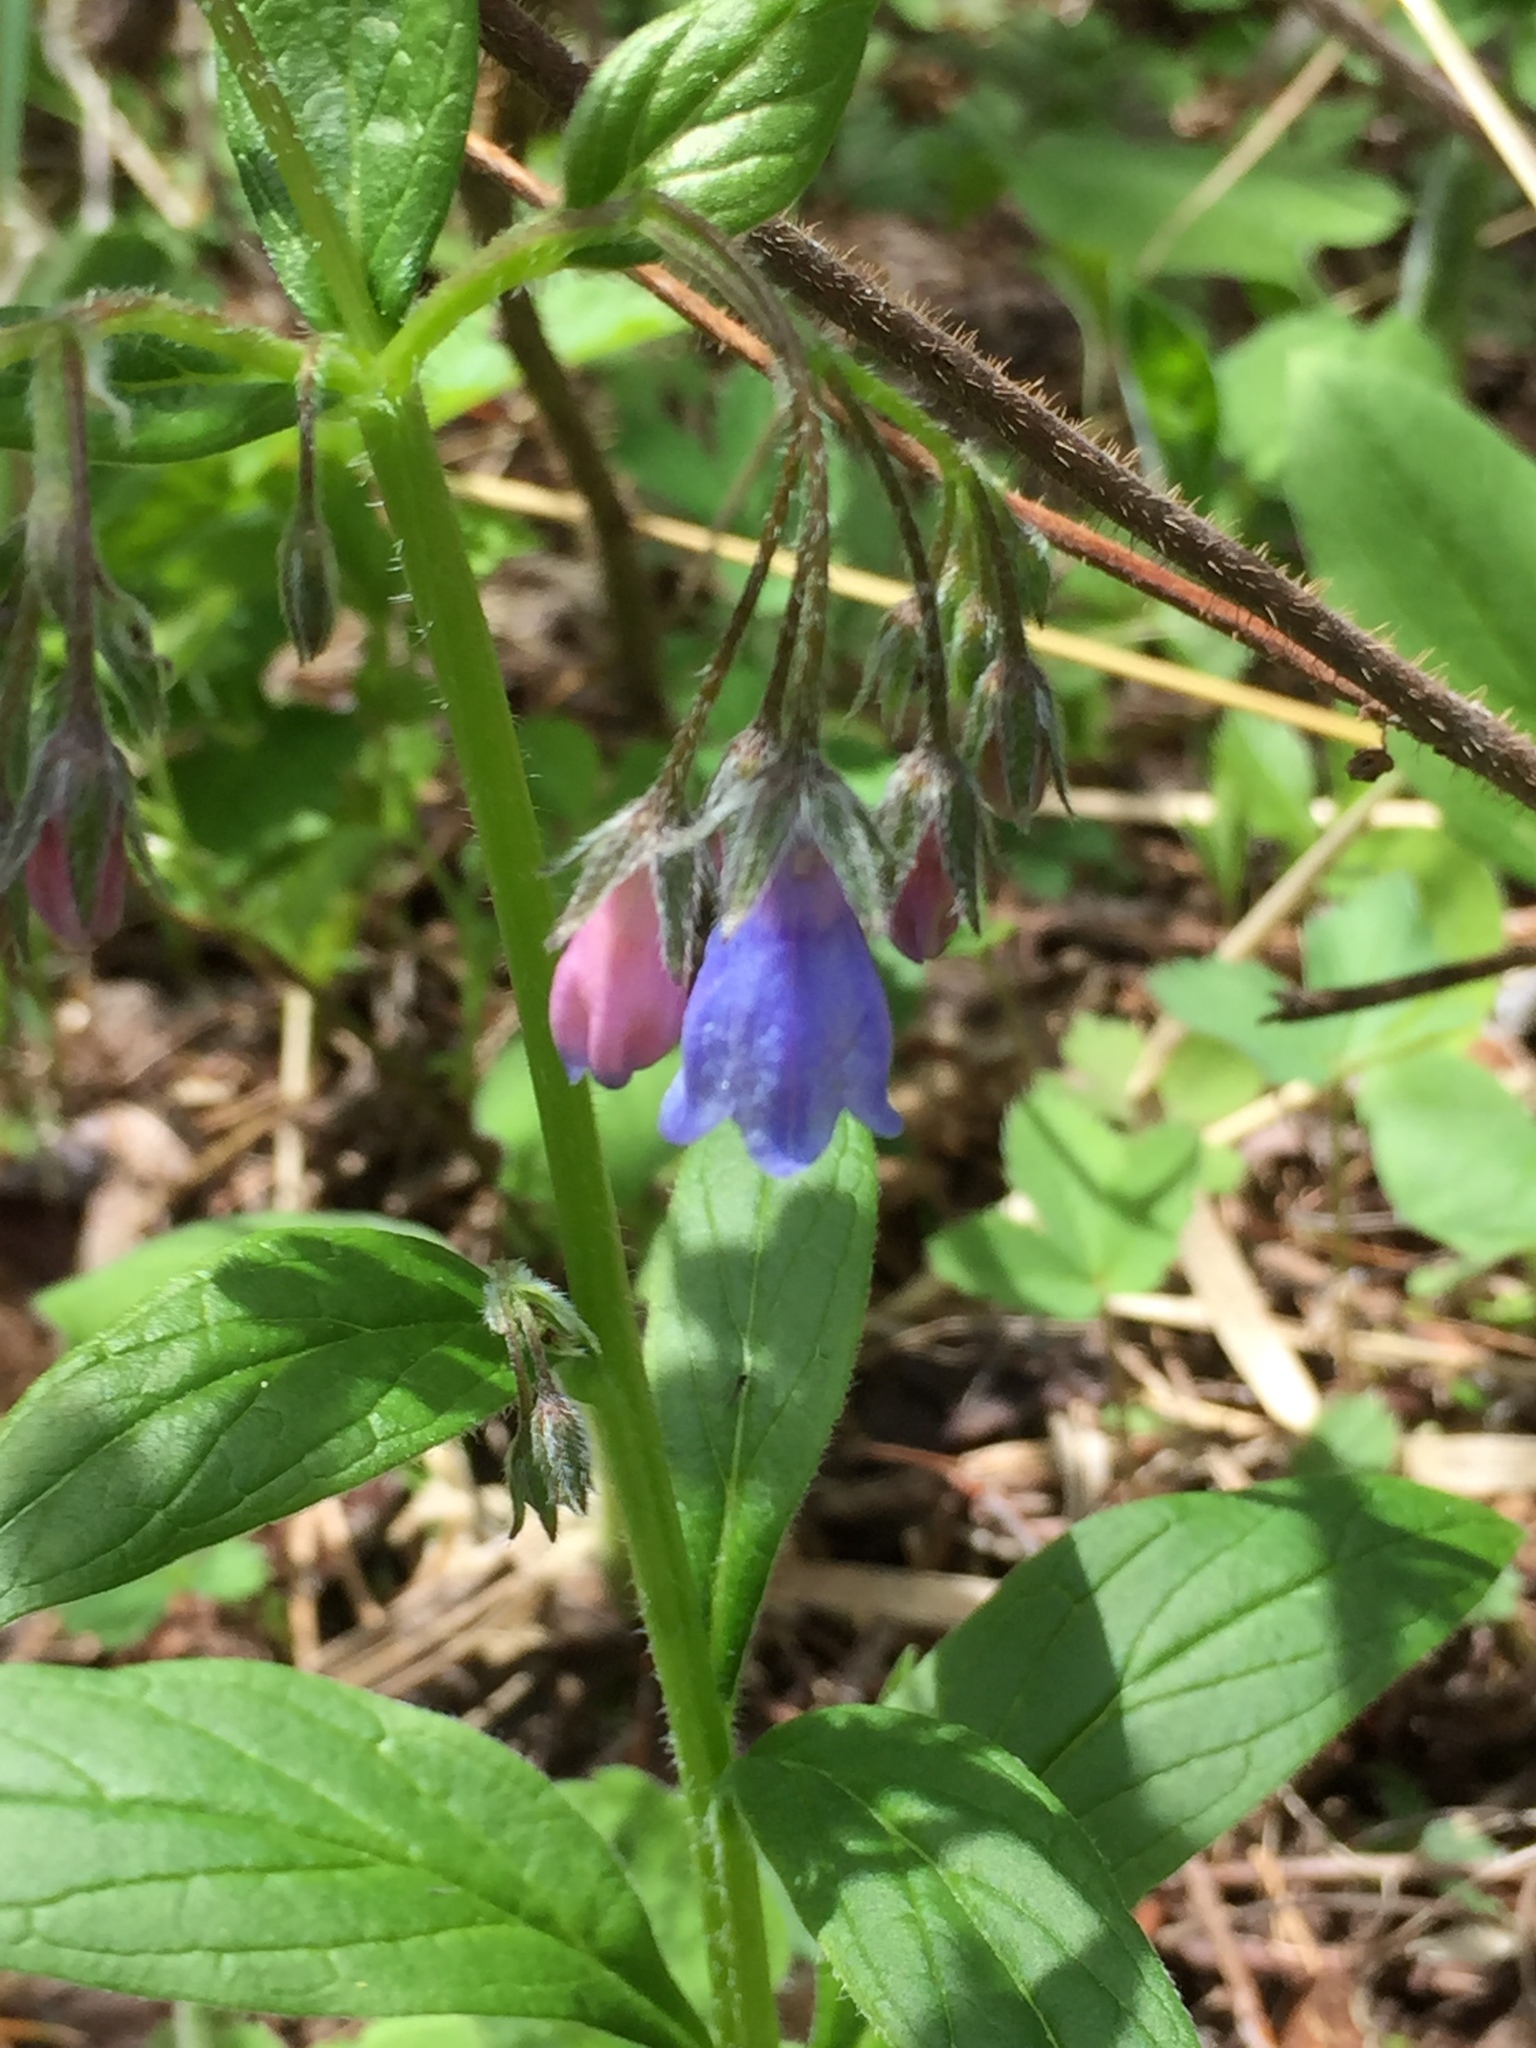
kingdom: Plantae
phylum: Tracheophyta
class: Magnoliopsida
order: Boraginales
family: Boraginaceae
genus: Mertensia
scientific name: Mertensia paniculata
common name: Panicled bluebells
